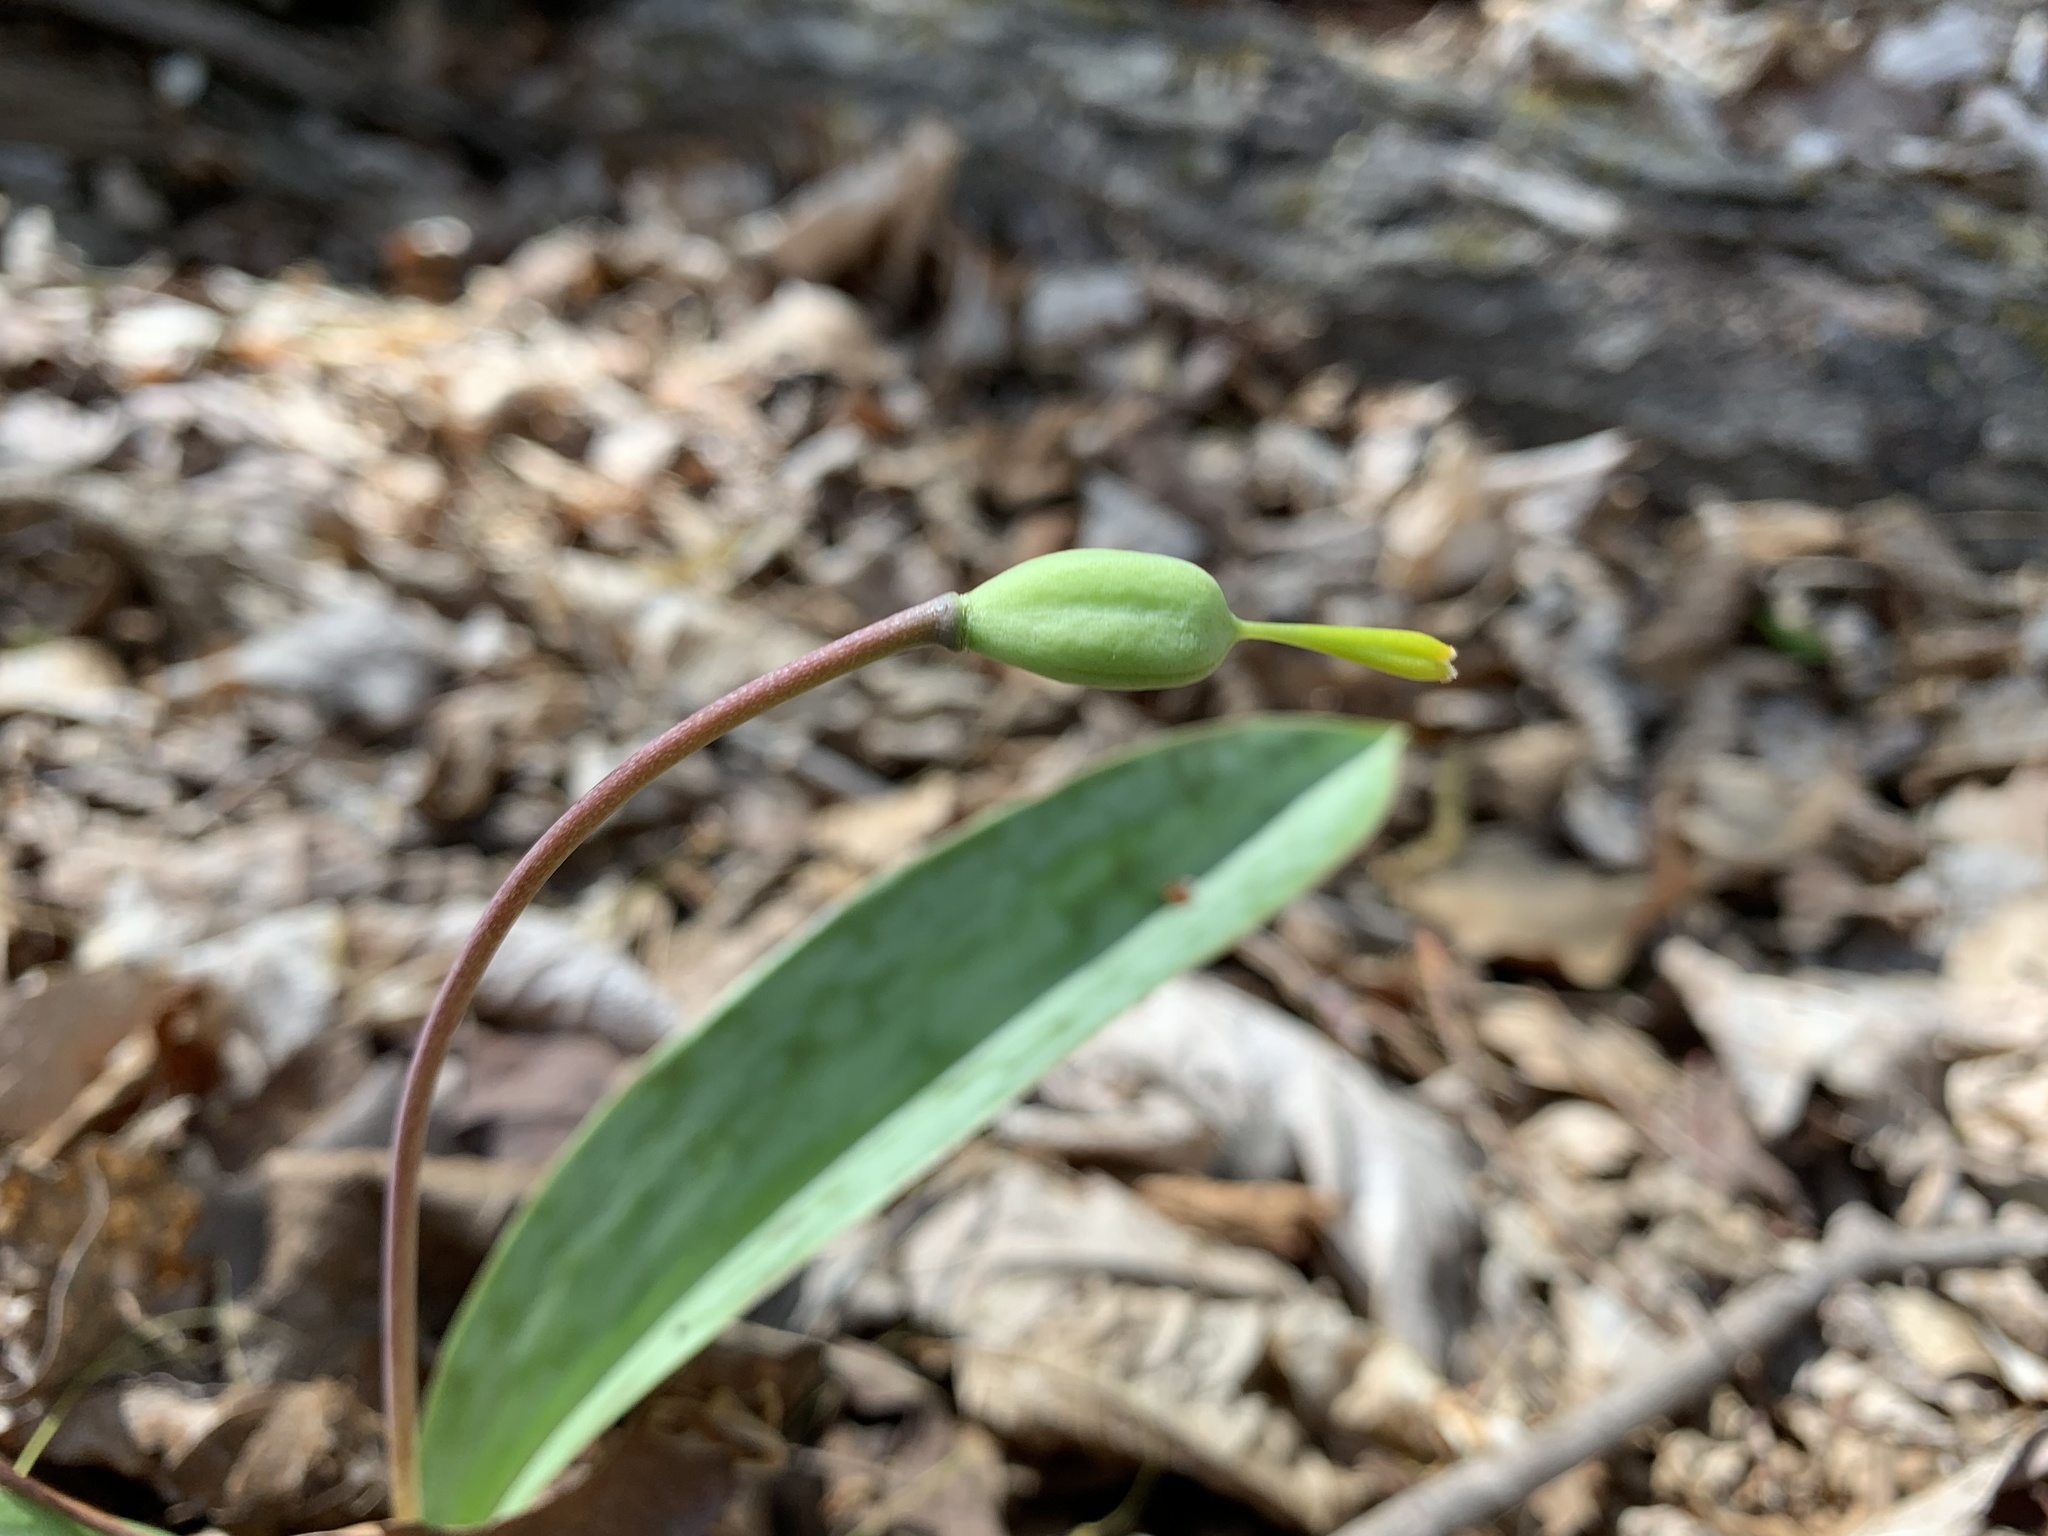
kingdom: Plantae
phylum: Tracheophyta
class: Liliopsida
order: Liliales
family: Liliaceae
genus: Erythronium
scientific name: Erythronium americanum
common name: Yellow adder's-tongue
